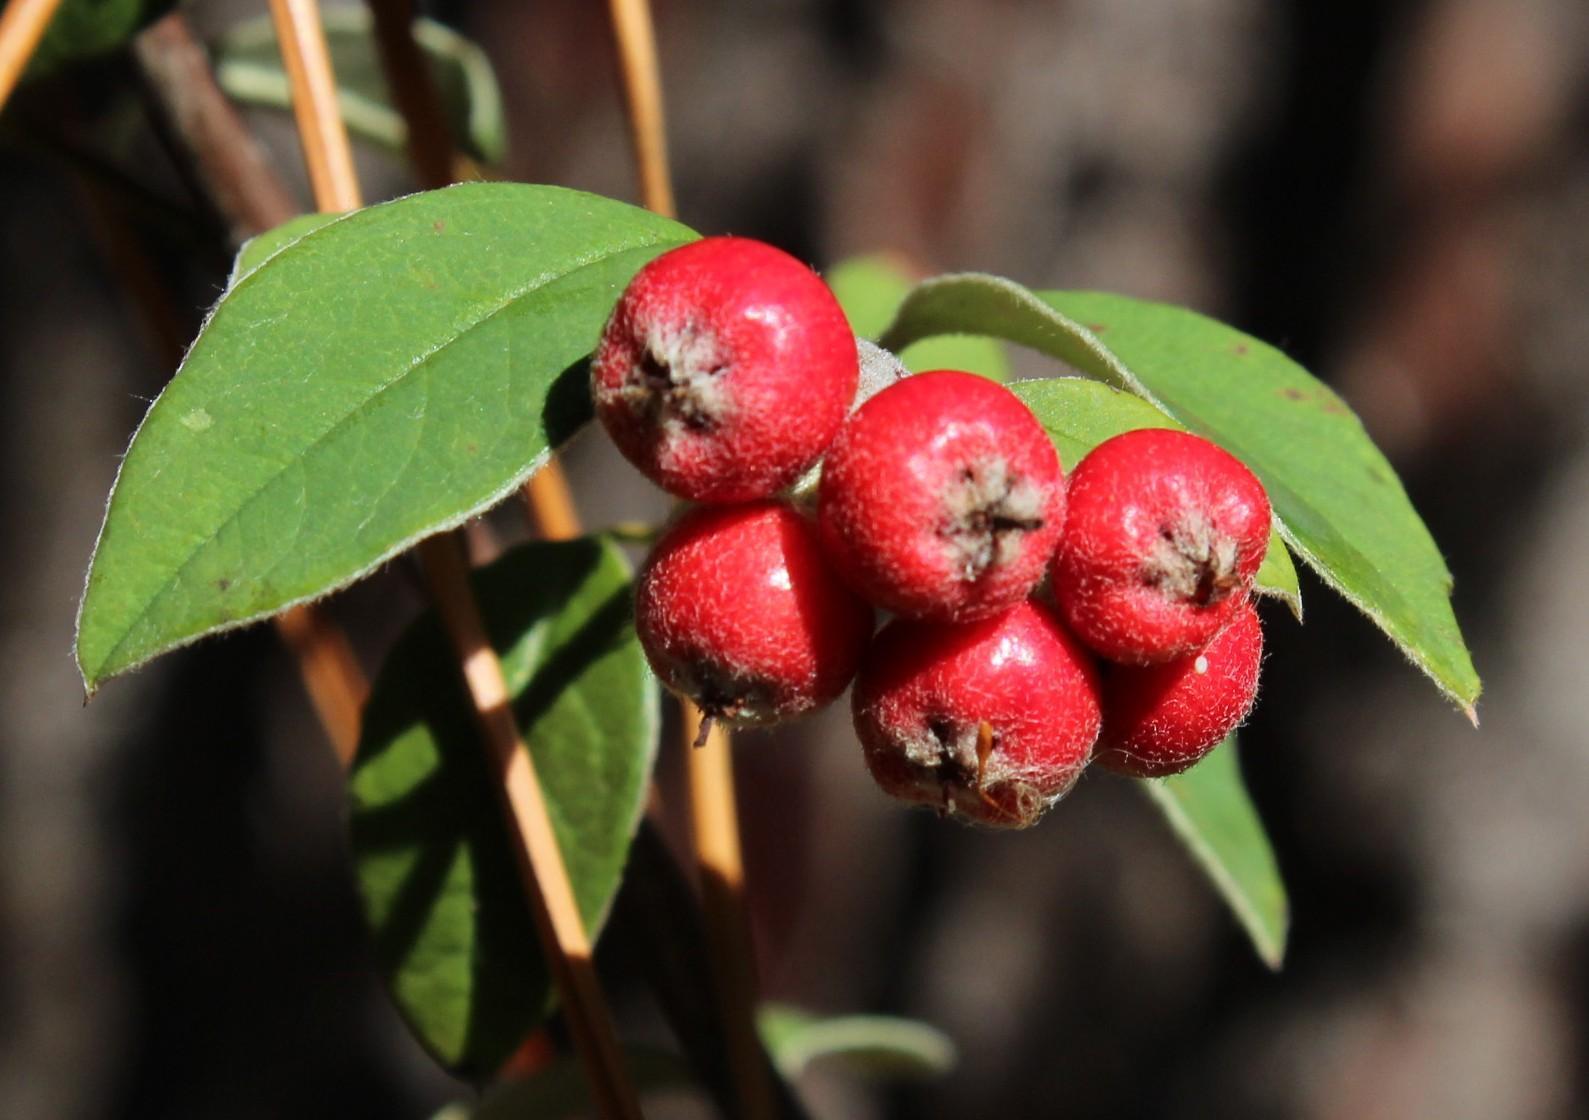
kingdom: Plantae
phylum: Tracheophyta
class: Magnoliopsida
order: Rosales
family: Rosaceae
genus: Cotoneaster
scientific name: Cotoneaster pannosus
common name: Silverleaf cotoneaster
